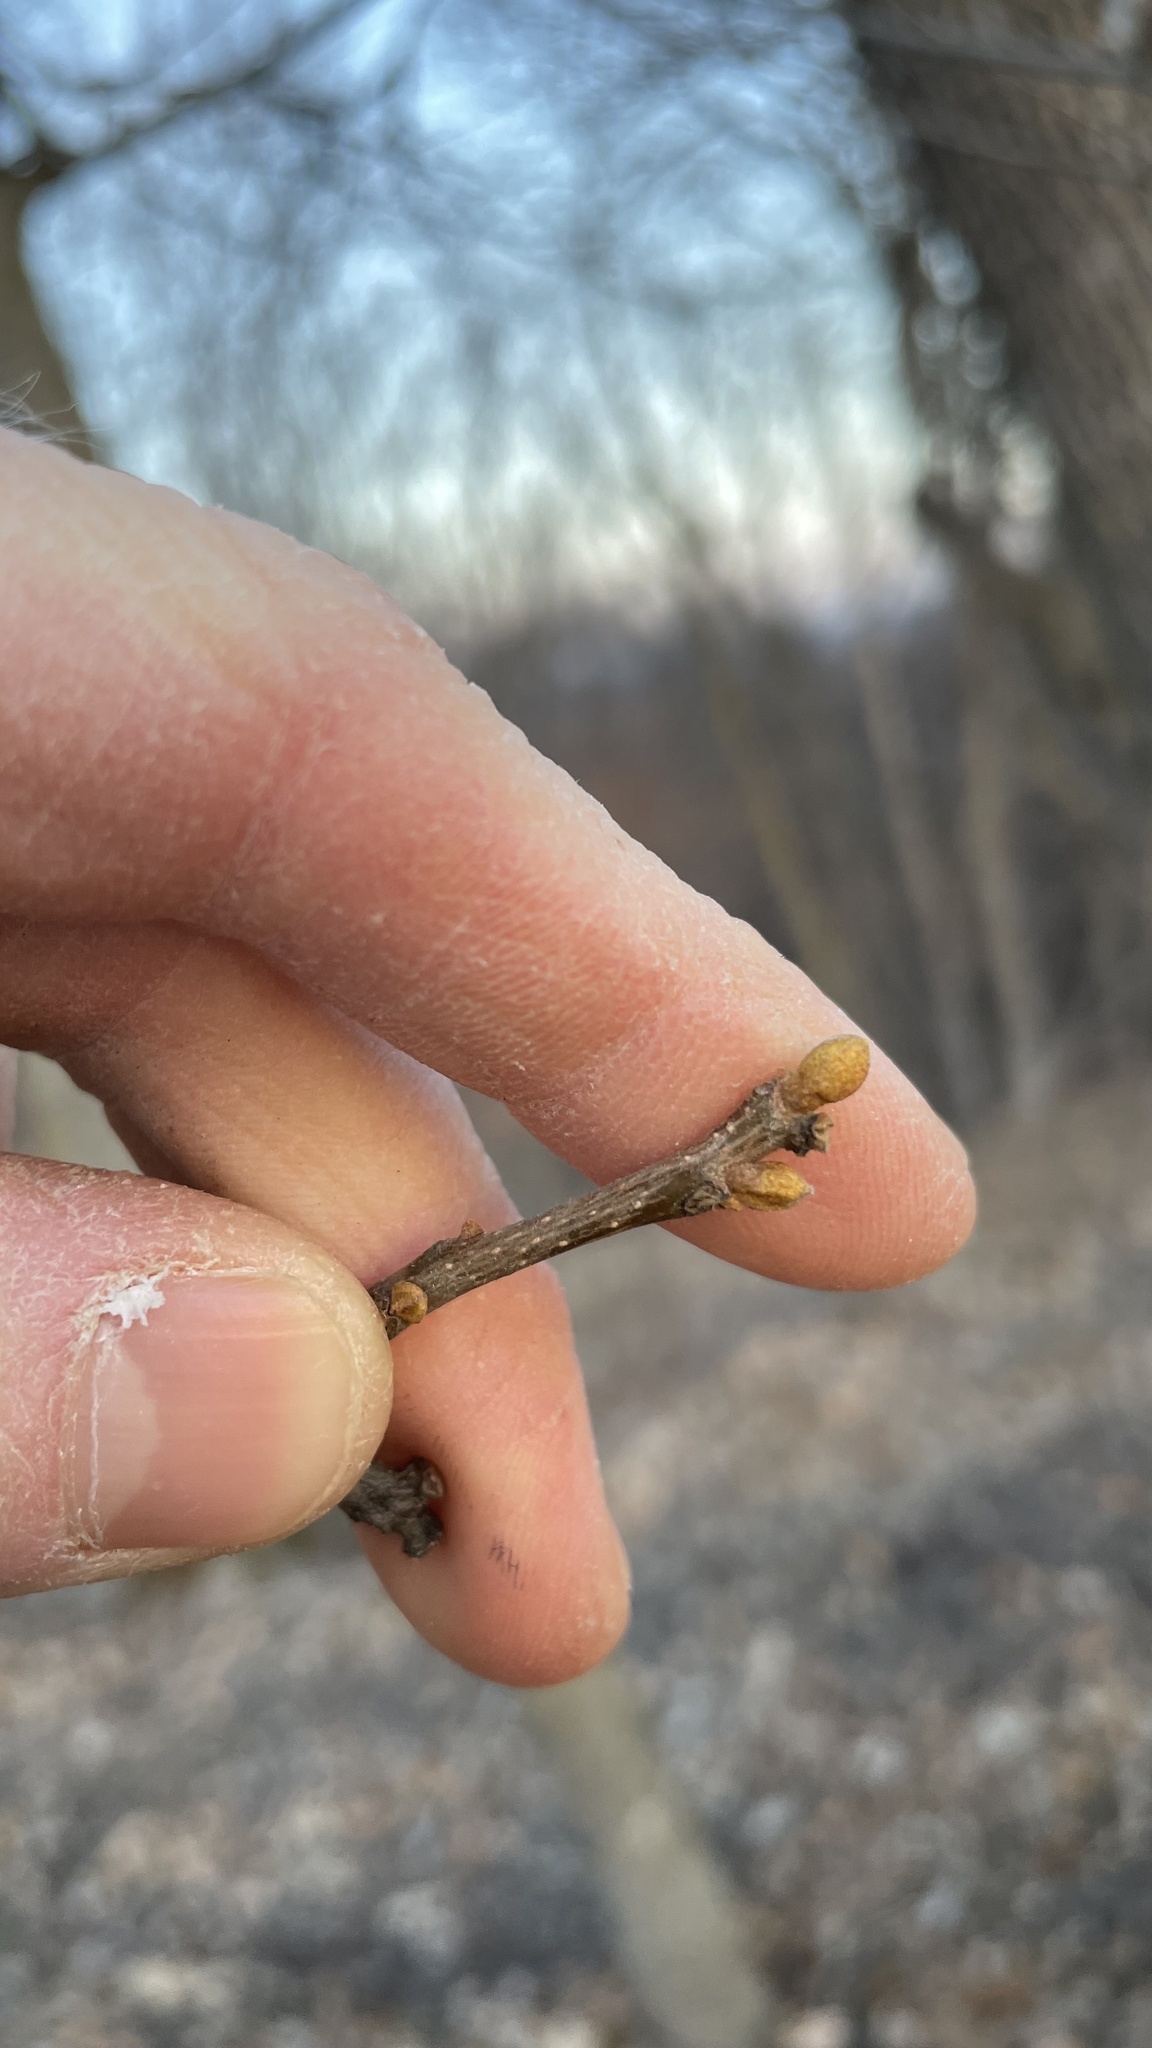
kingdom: Plantae
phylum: Tracheophyta
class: Magnoliopsida
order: Fagales
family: Juglandaceae
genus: Carya
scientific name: Carya cordiformis
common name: Bitternut hickory
